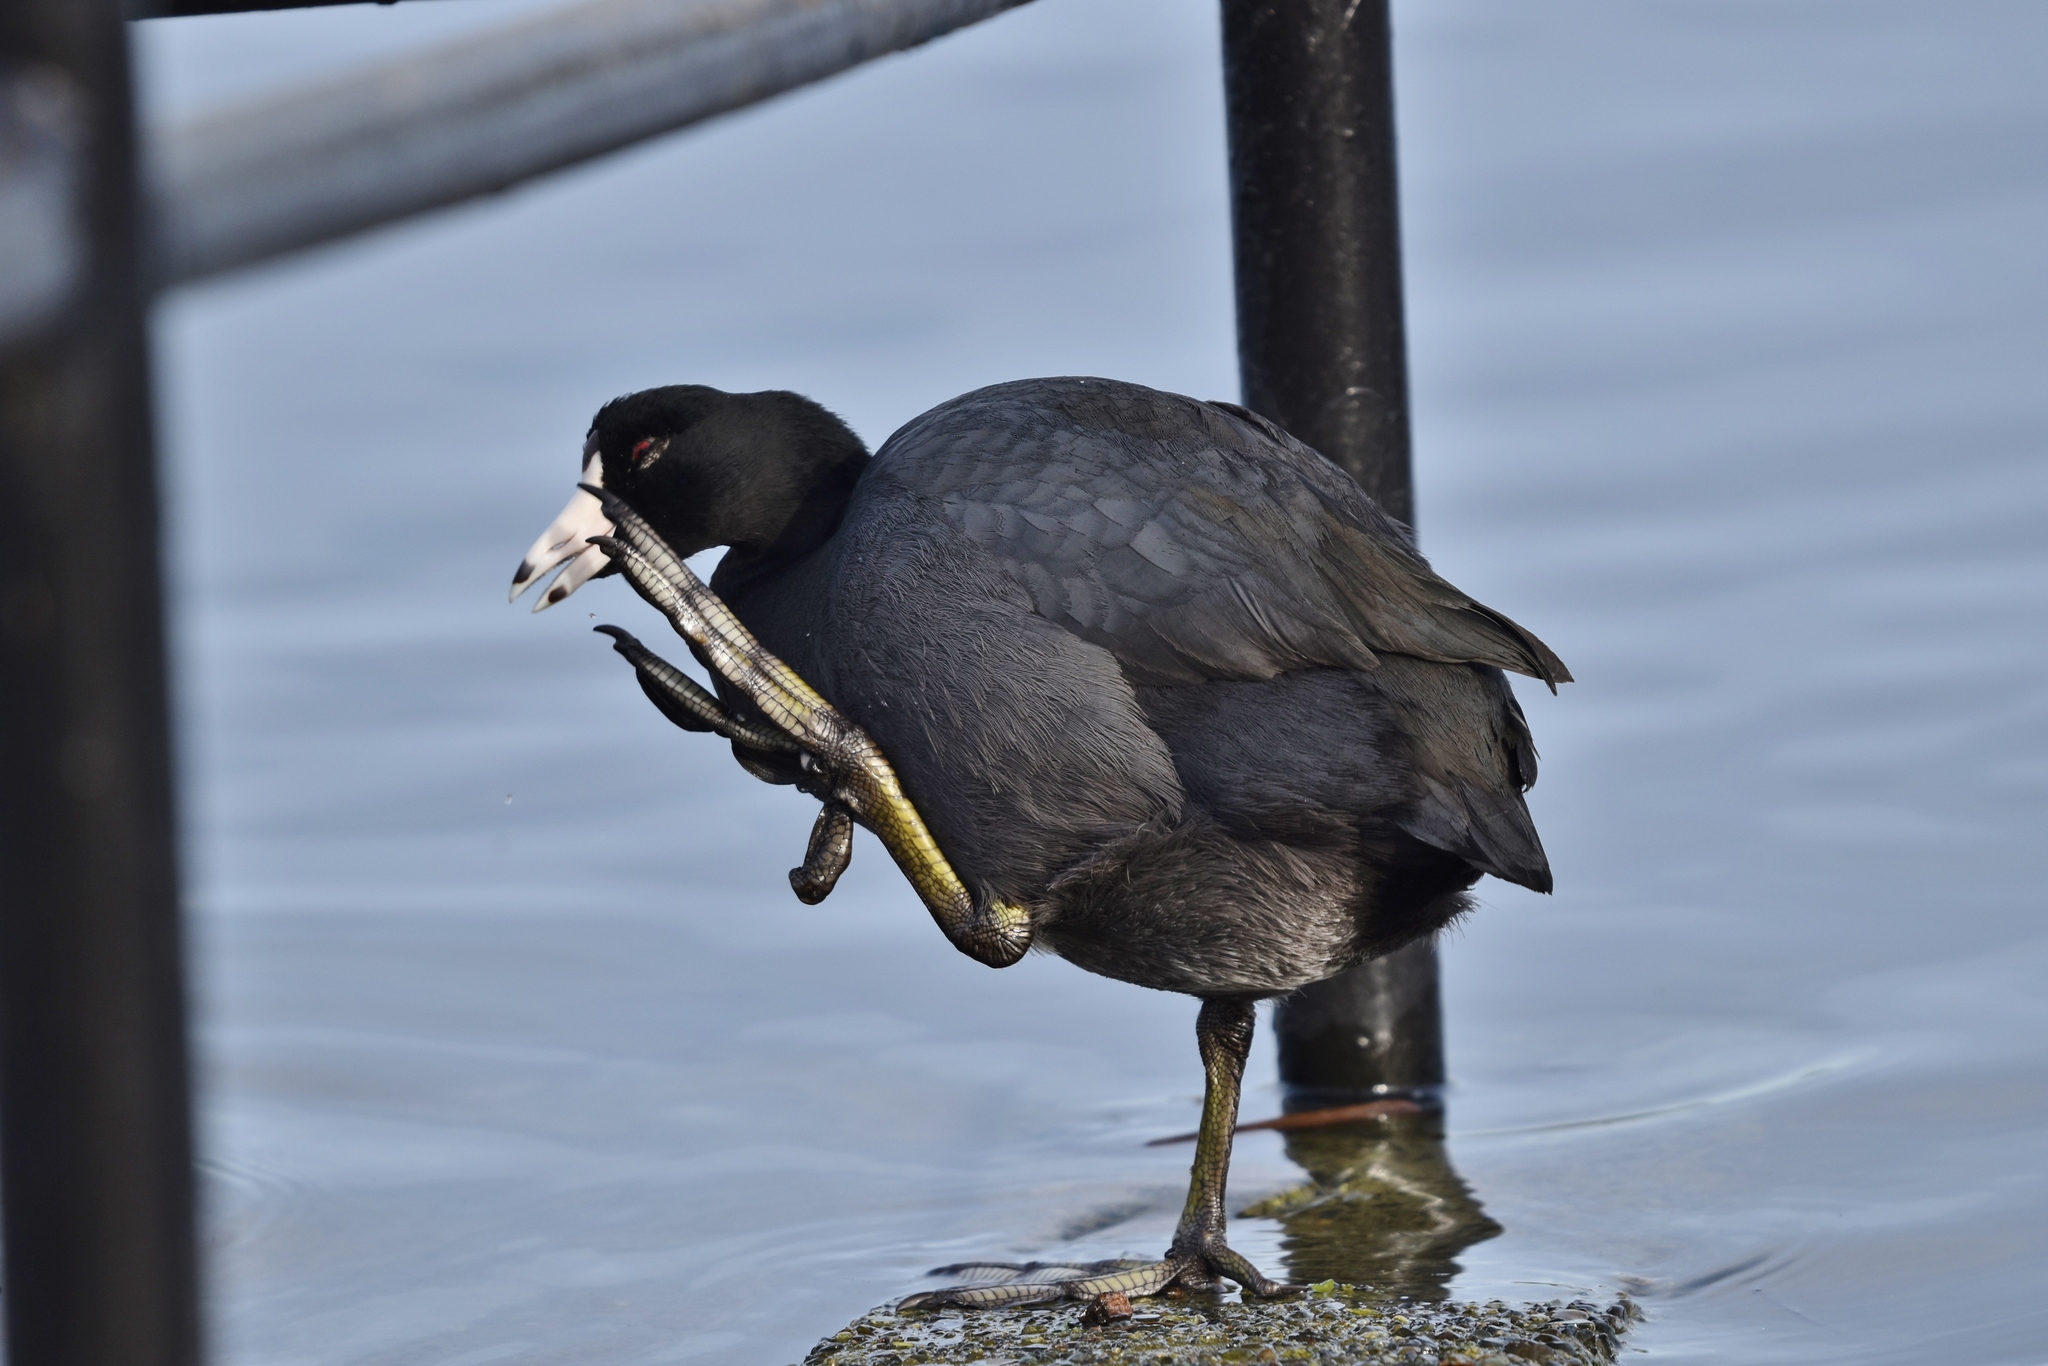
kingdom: Animalia
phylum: Chordata
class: Aves
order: Gruiformes
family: Rallidae
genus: Fulica
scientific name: Fulica americana
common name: American coot
